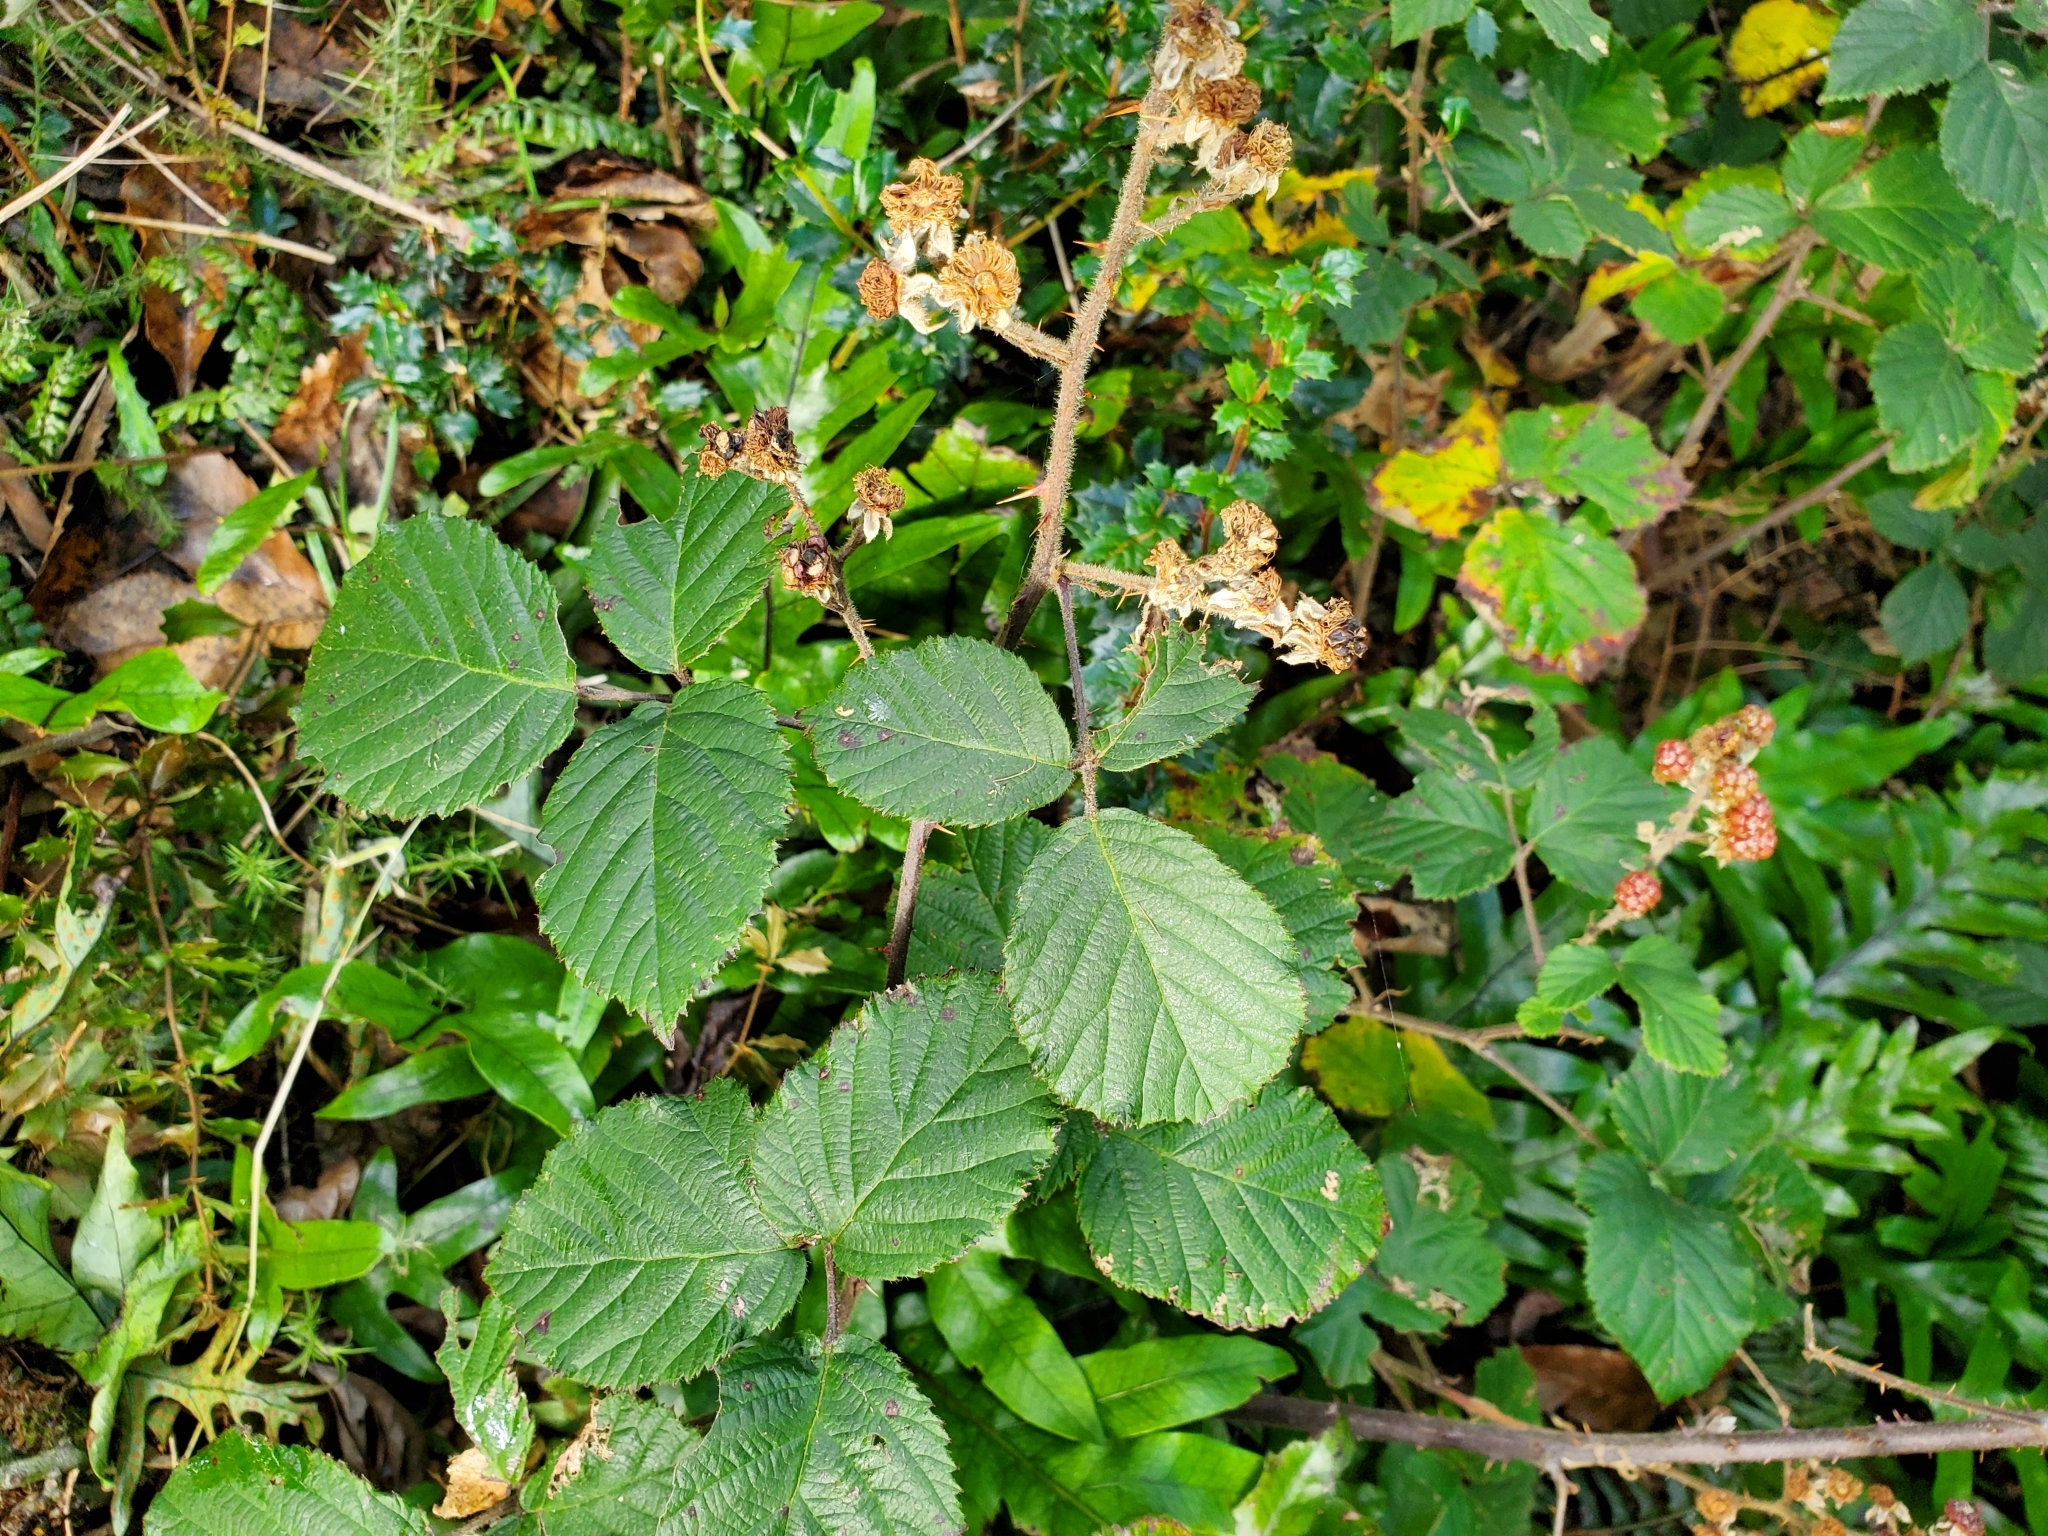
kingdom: Plantae
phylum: Tracheophyta
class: Magnoliopsida
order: Rosales
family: Rosaceae
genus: Rubus
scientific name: Rubus
